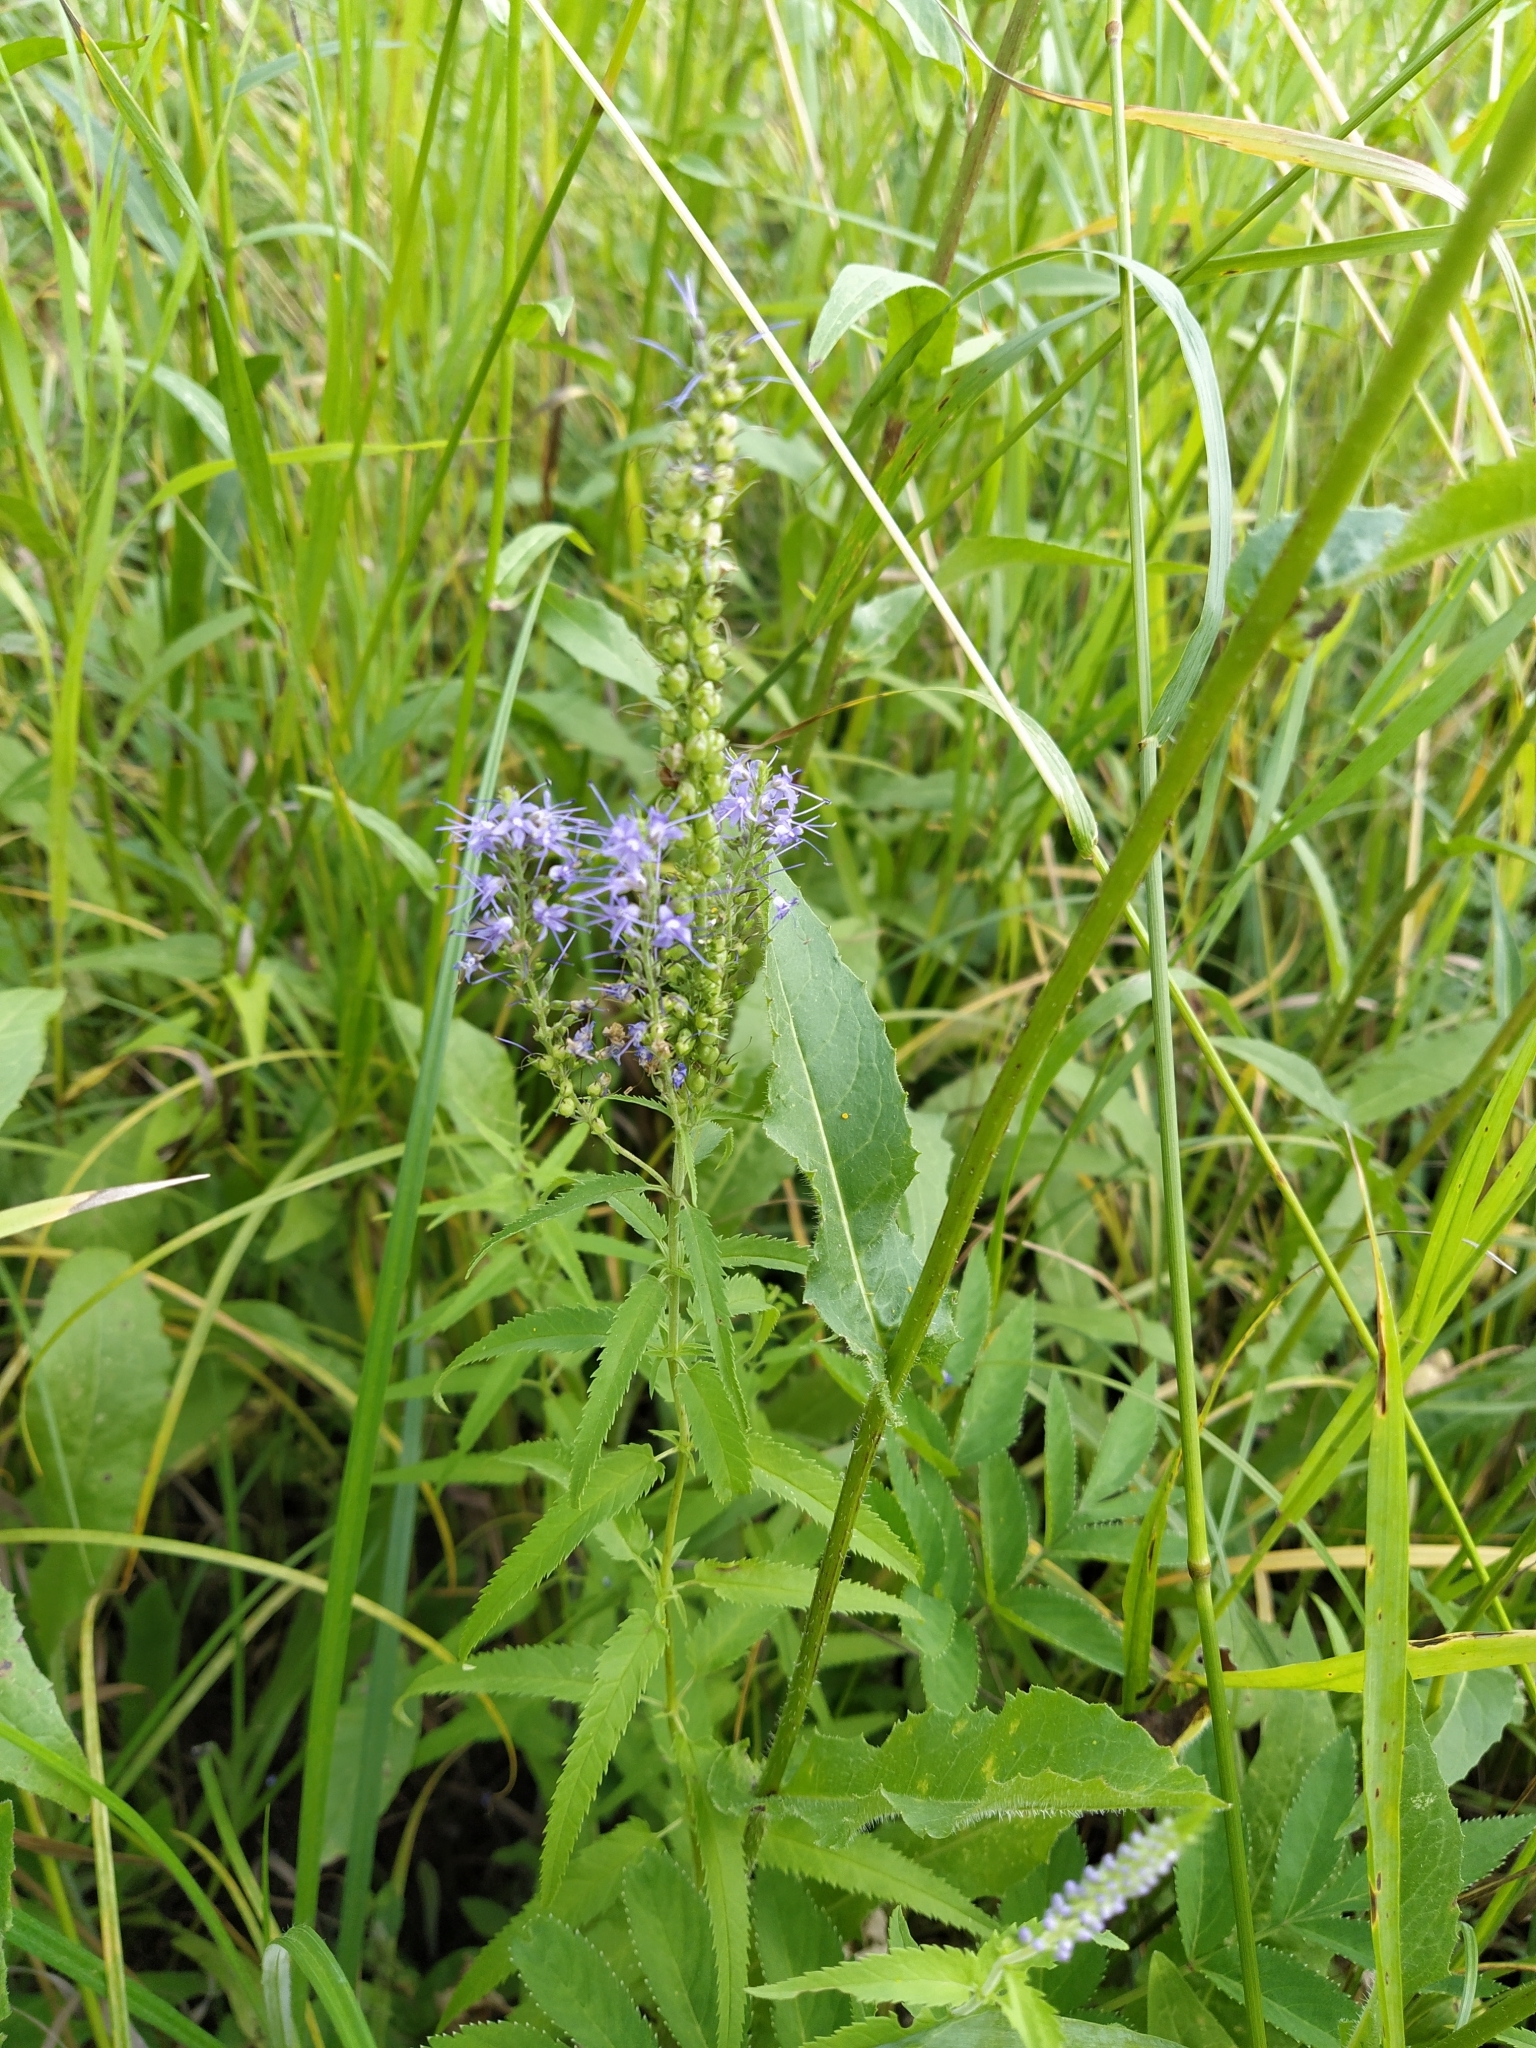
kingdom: Plantae
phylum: Tracheophyta
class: Magnoliopsida
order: Lamiales
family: Plantaginaceae
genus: Veronica
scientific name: Veronica longifolia
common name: Garden speedwell
